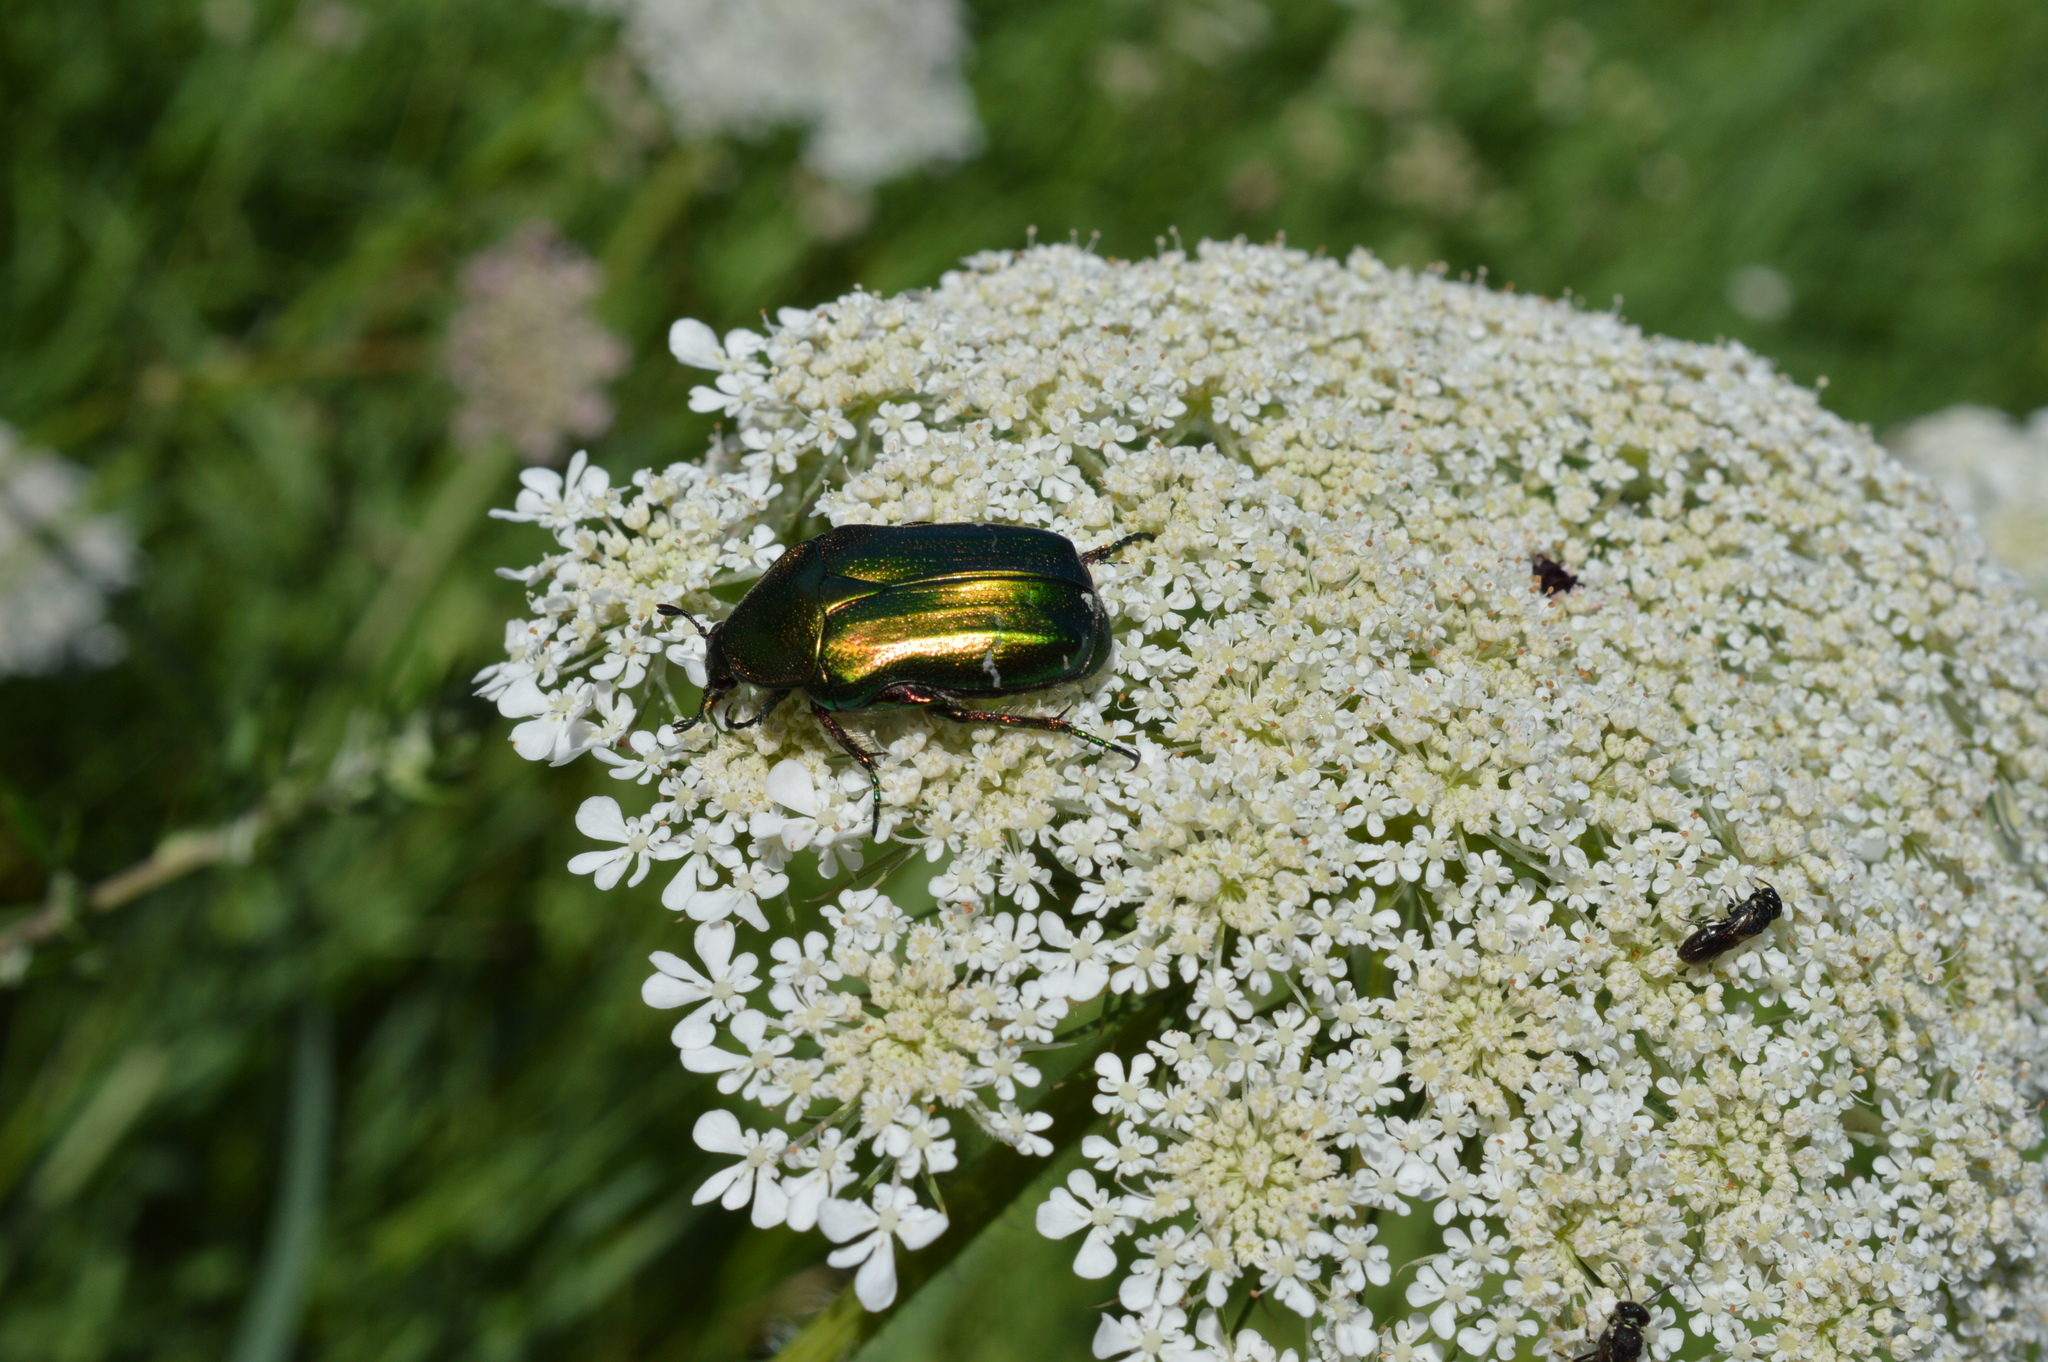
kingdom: Animalia
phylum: Arthropoda
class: Insecta
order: Coleoptera
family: Scarabaeidae
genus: Cetonia
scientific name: Cetonia aurata
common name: Rose chafer
